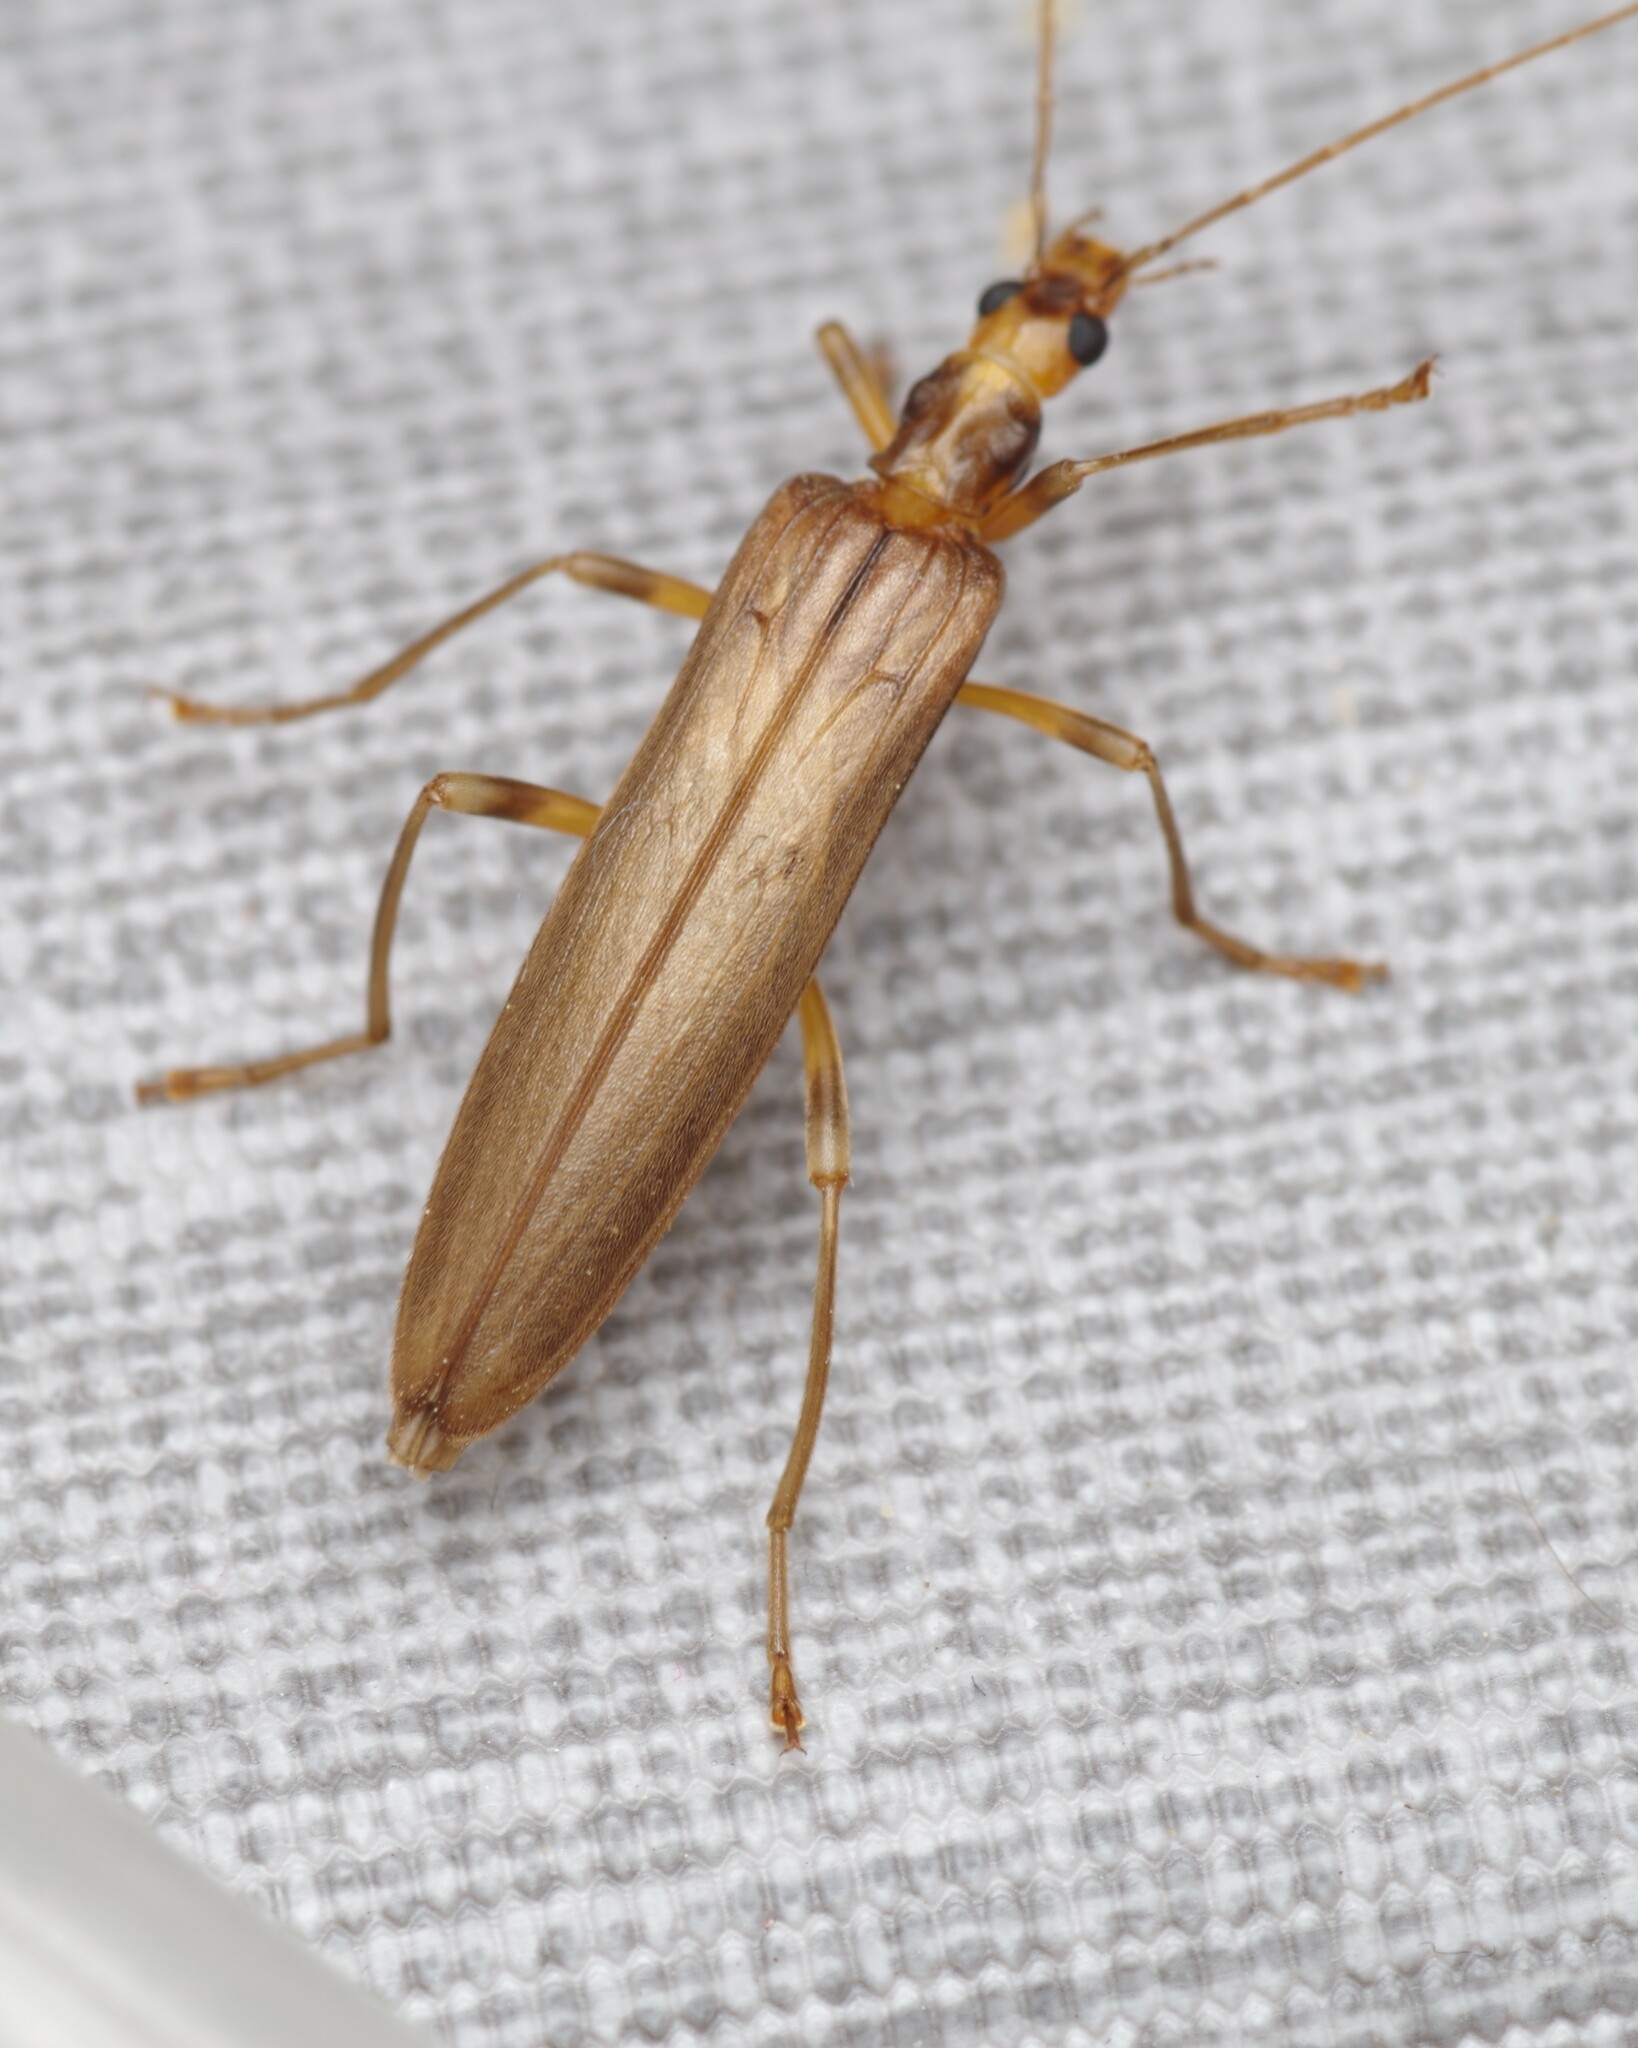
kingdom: Animalia
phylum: Arthropoda
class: Insecta
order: Coleoptera
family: Oedemeridae
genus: Oedemera
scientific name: Oedemera femoralis
